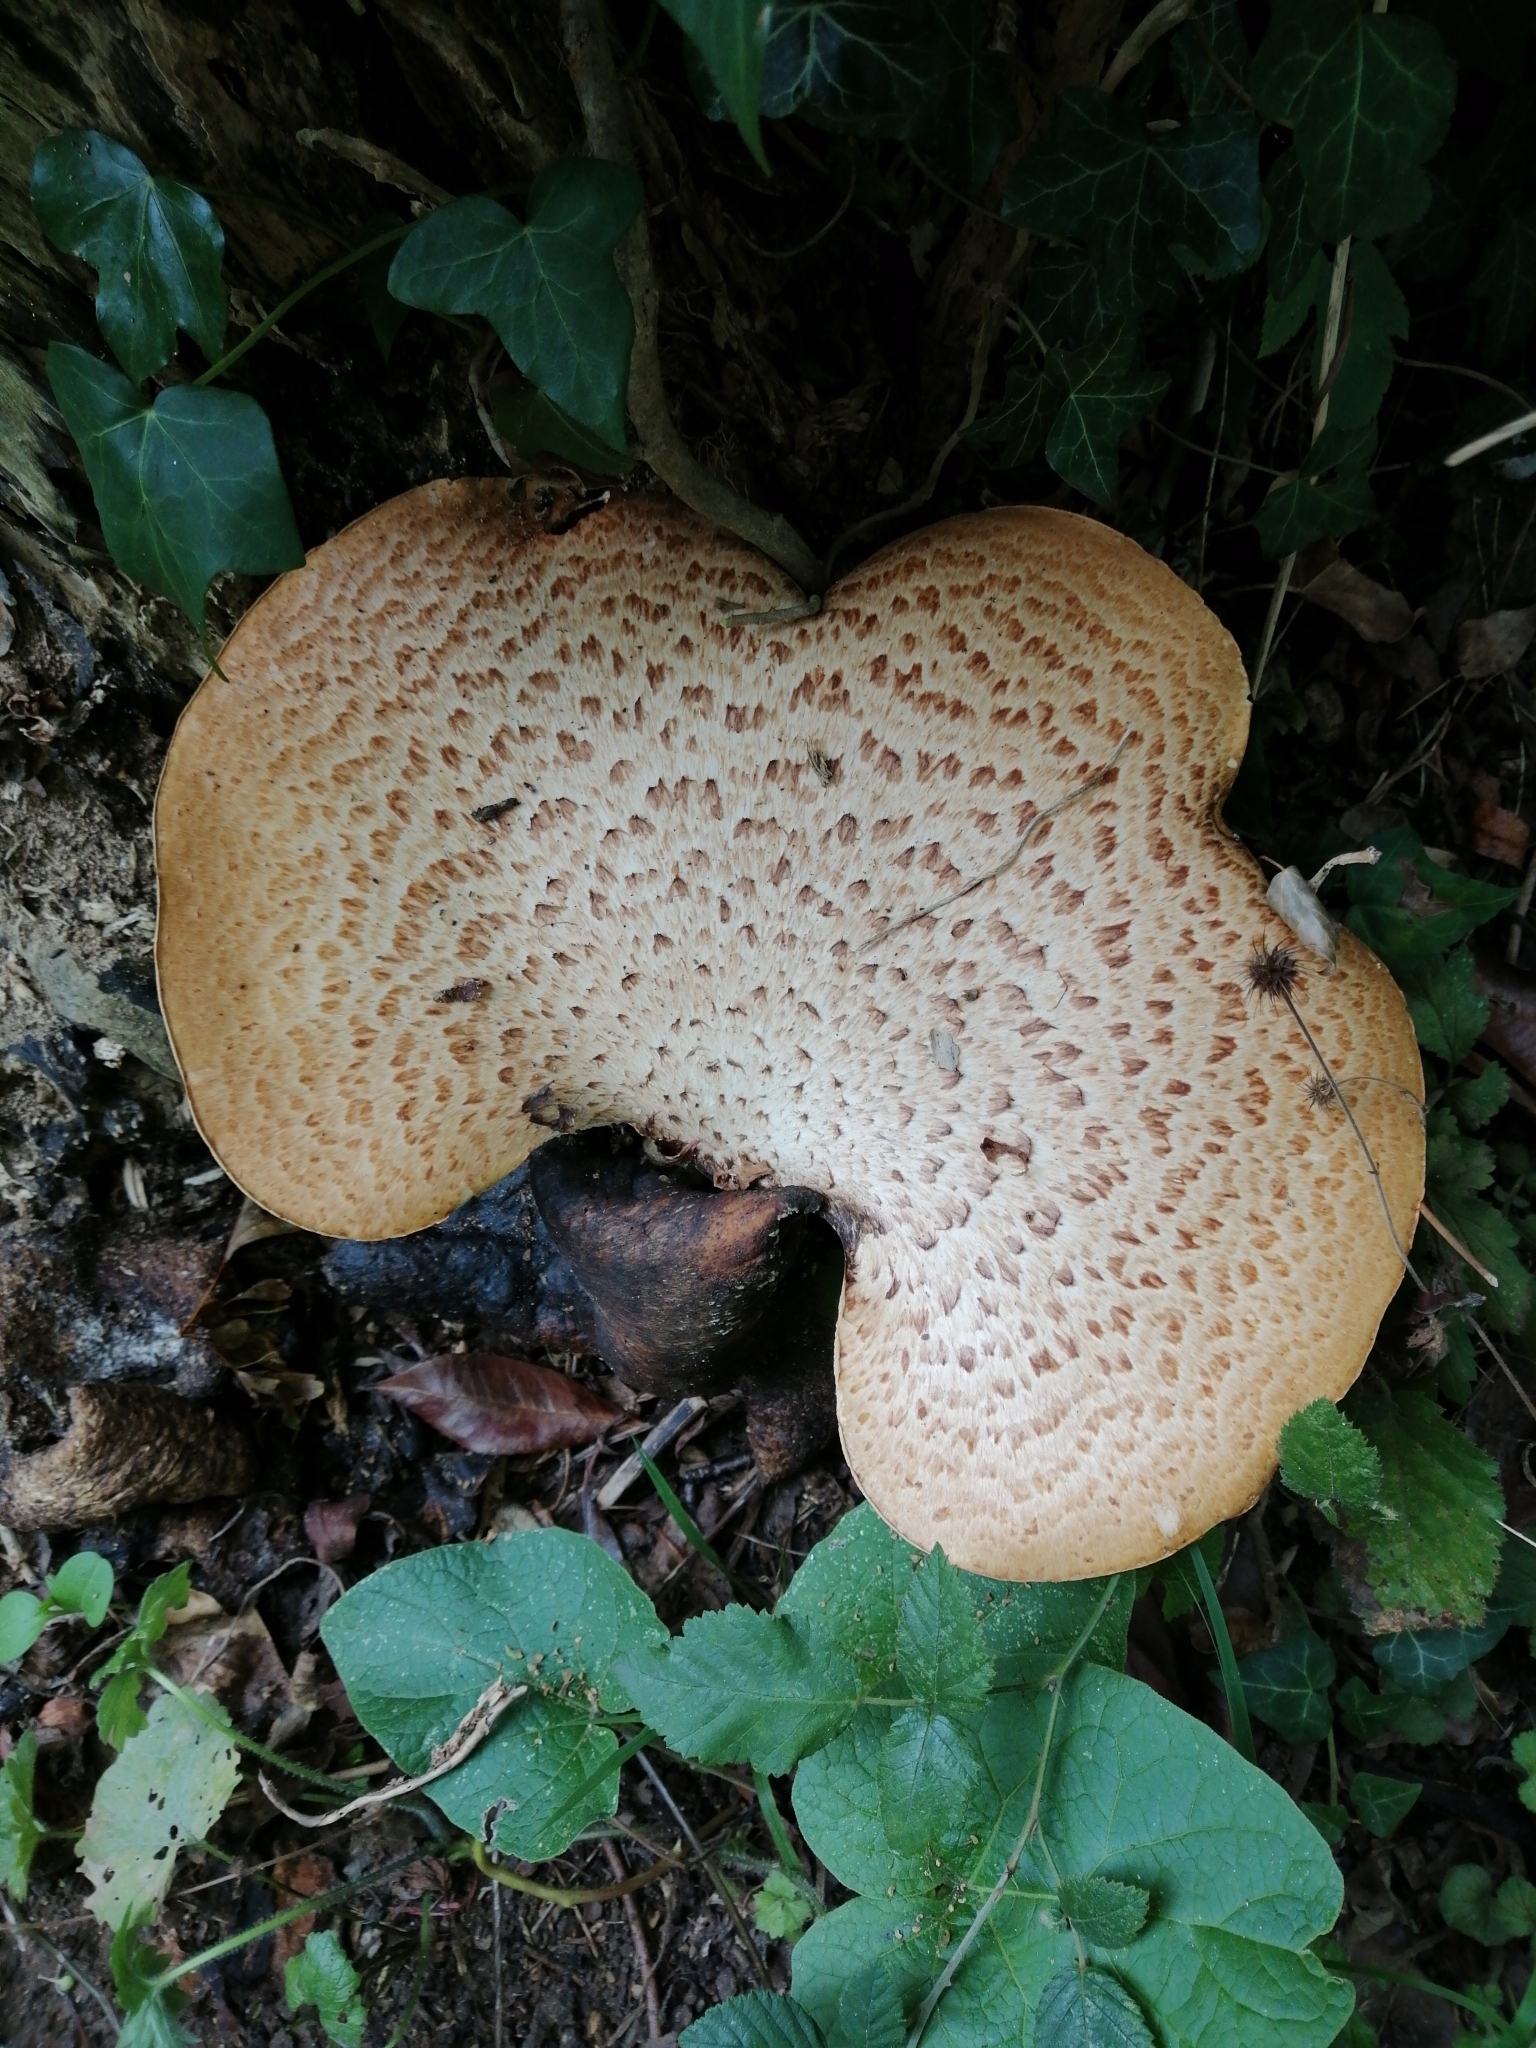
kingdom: Fungi
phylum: Basidiomycota
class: Agaricomycetes
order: Polyporales
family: Polyporaceae
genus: Cerioporus
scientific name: Cerioporus squamosus
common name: Dryad's saddle
